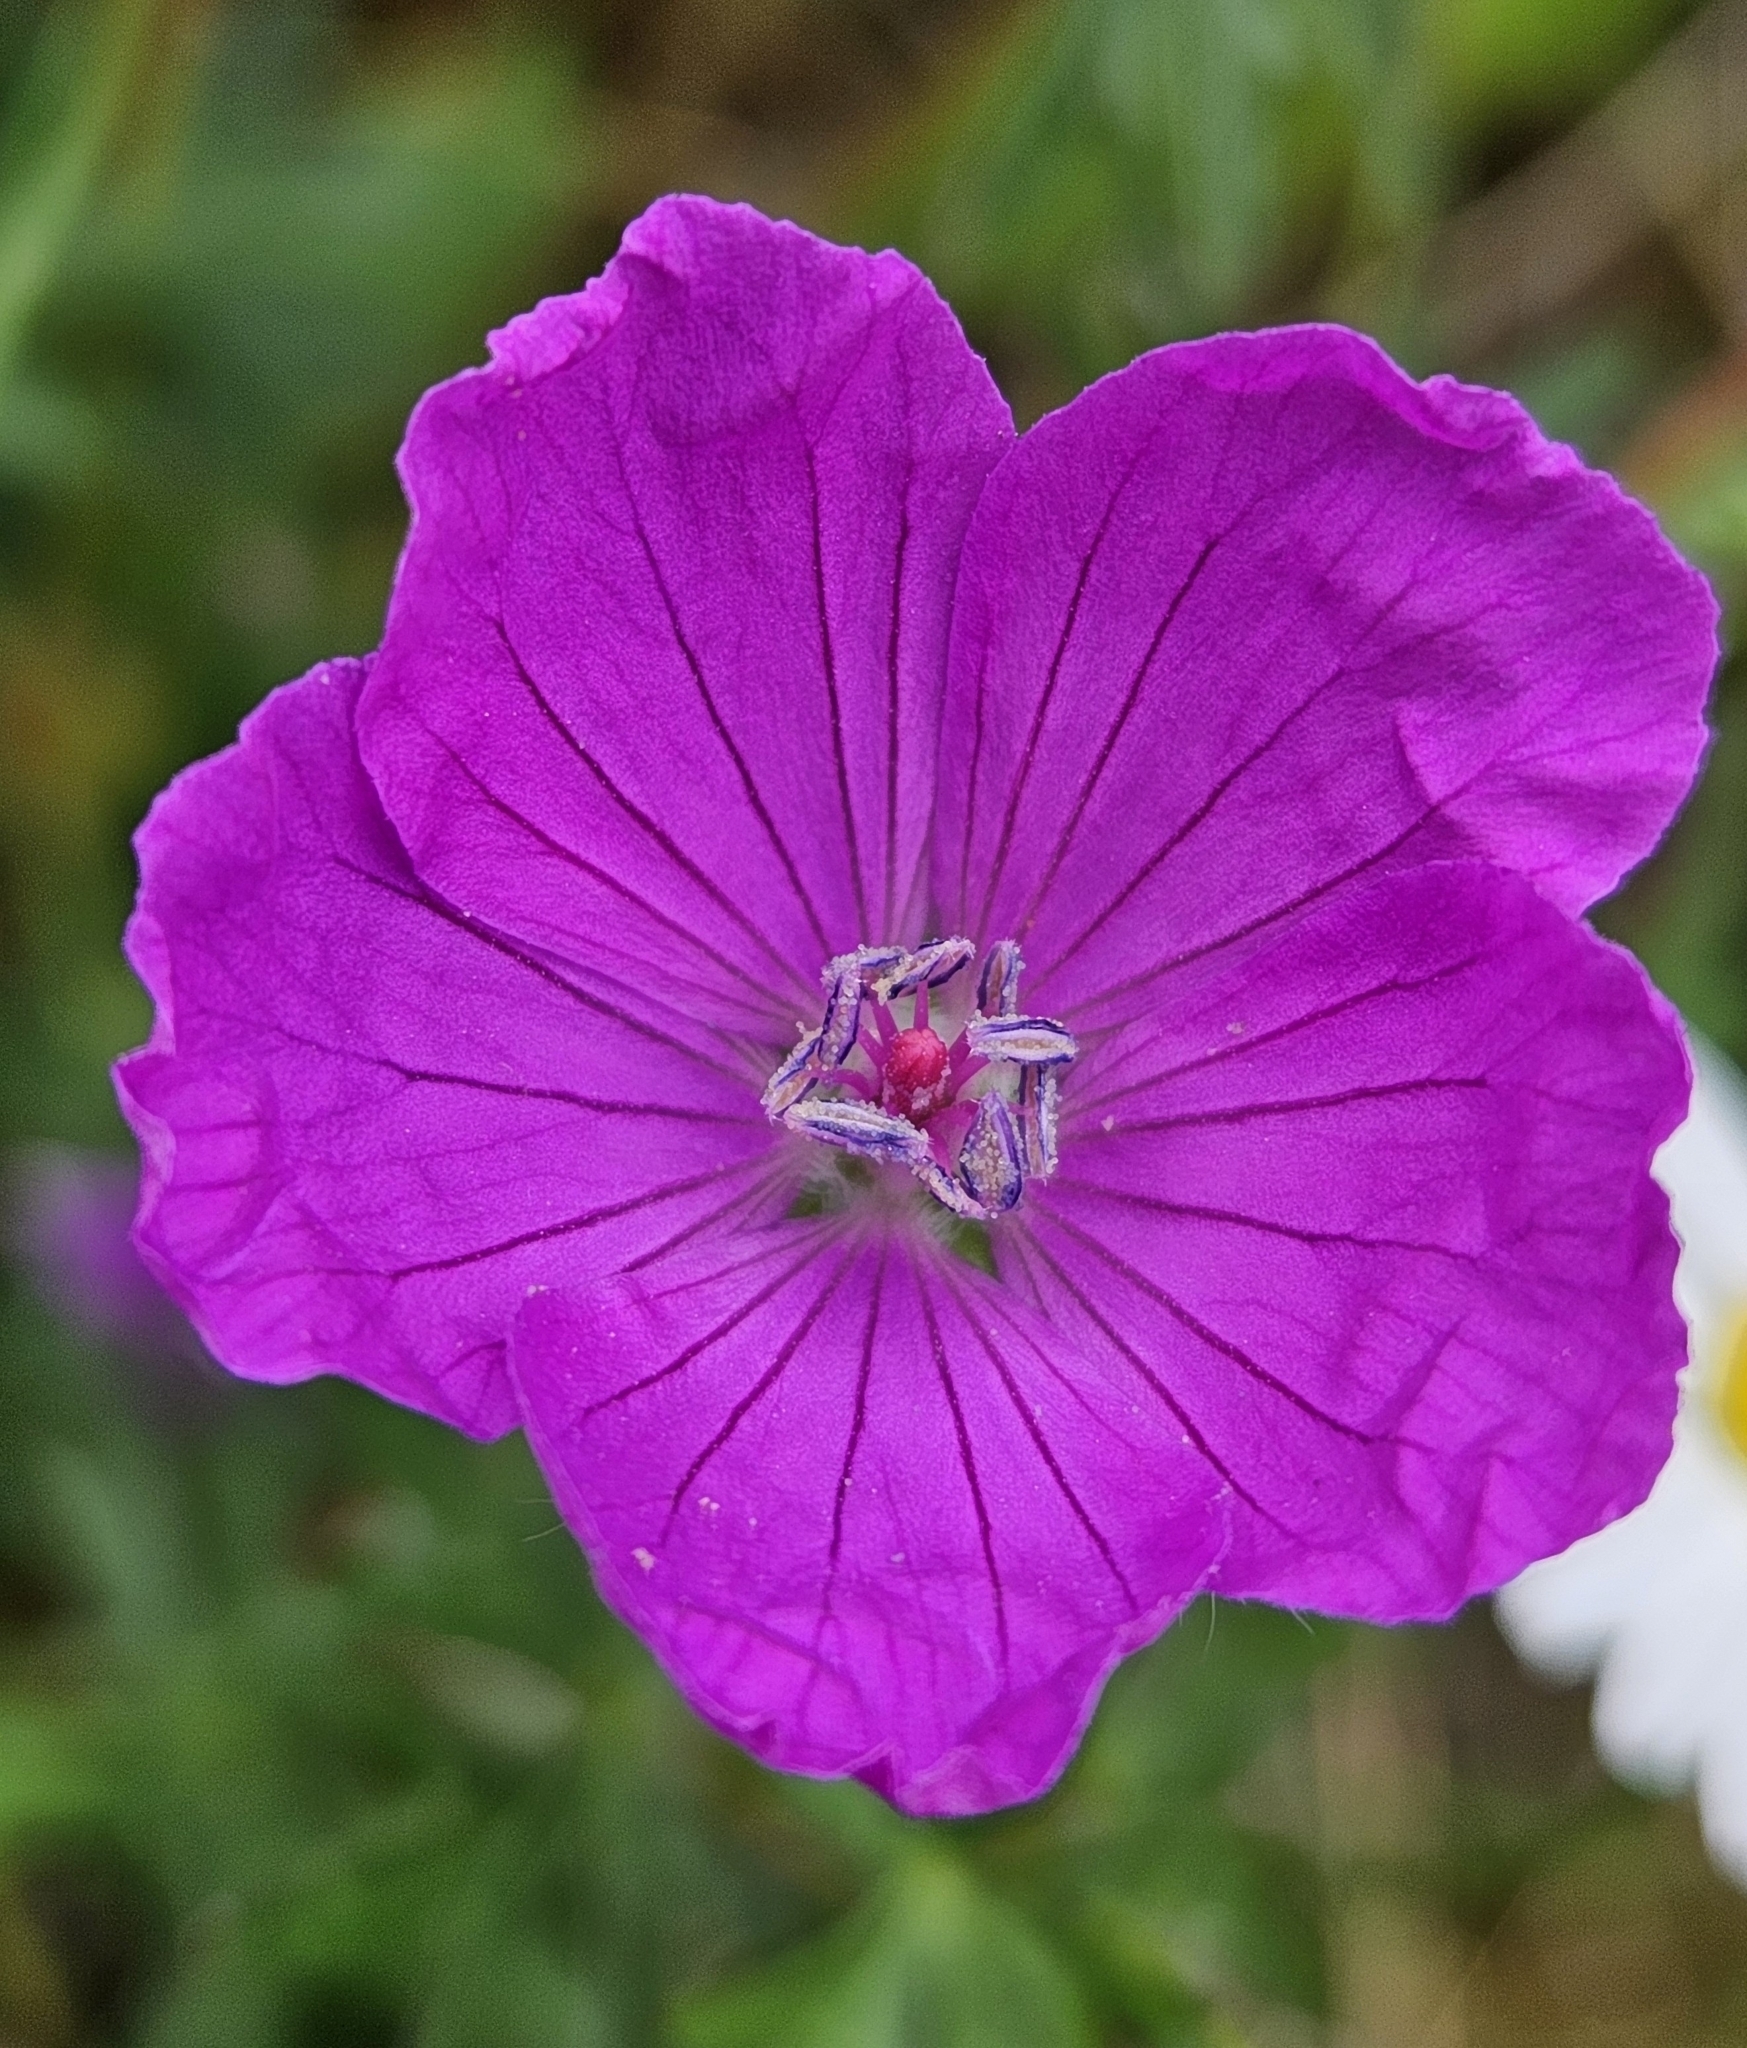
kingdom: Plantae
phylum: Tracheophyta
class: Magnoliopsida
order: Geraniales
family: Geraniaceae
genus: Geranium
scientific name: Geranium sanguineum
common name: Bloody crane's-bill
